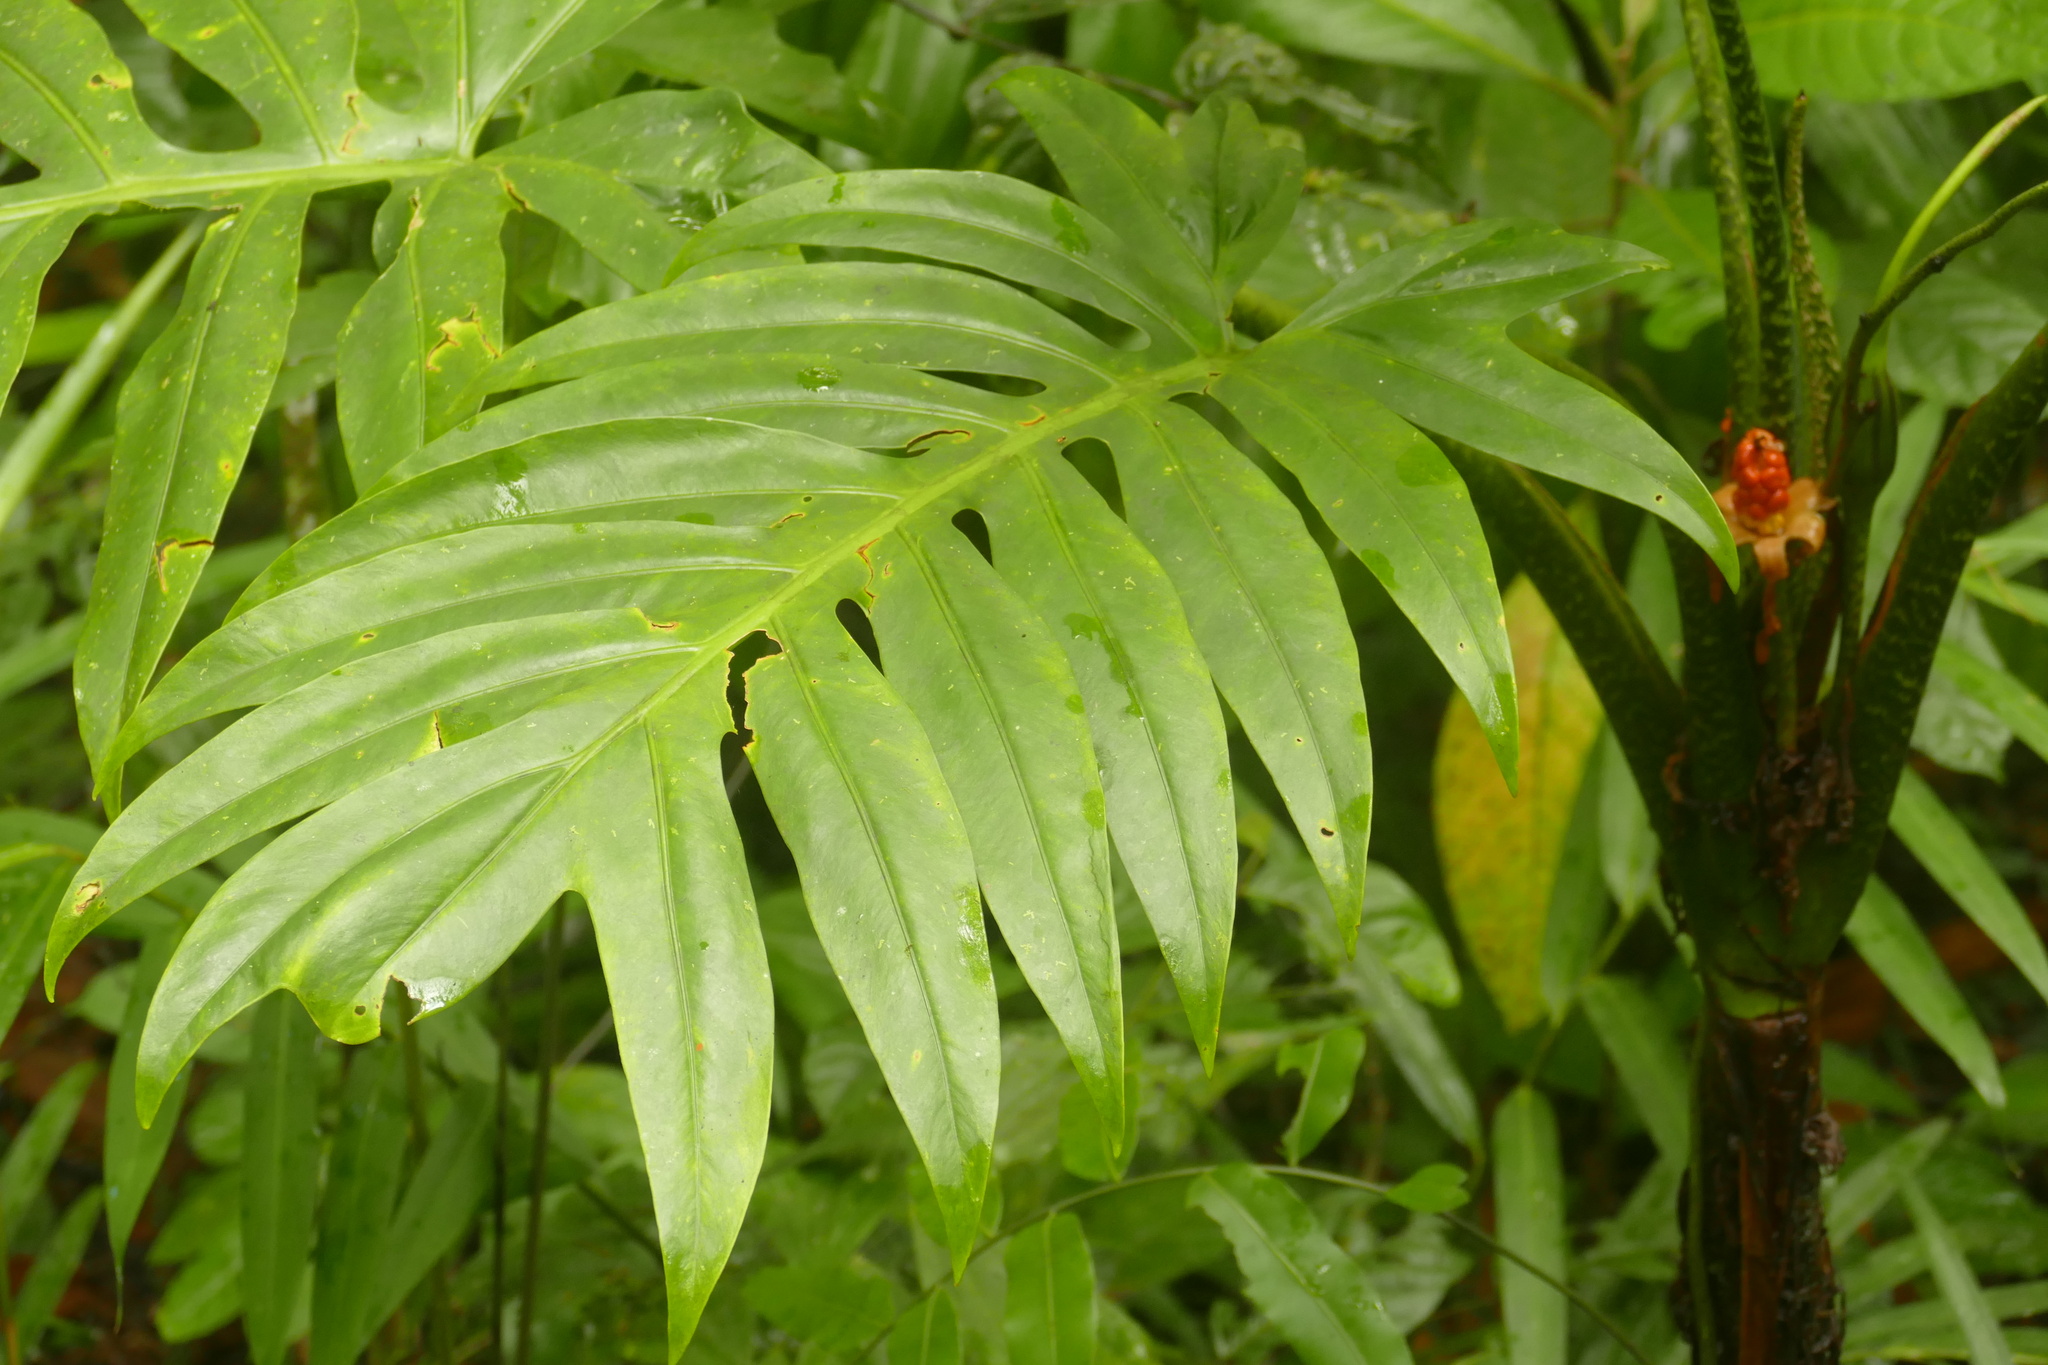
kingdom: Plantae
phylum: Tracheophyta
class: Liliopsida
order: Alismatales
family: Araceae
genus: Alocasia
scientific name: Alocasia brancifolia
